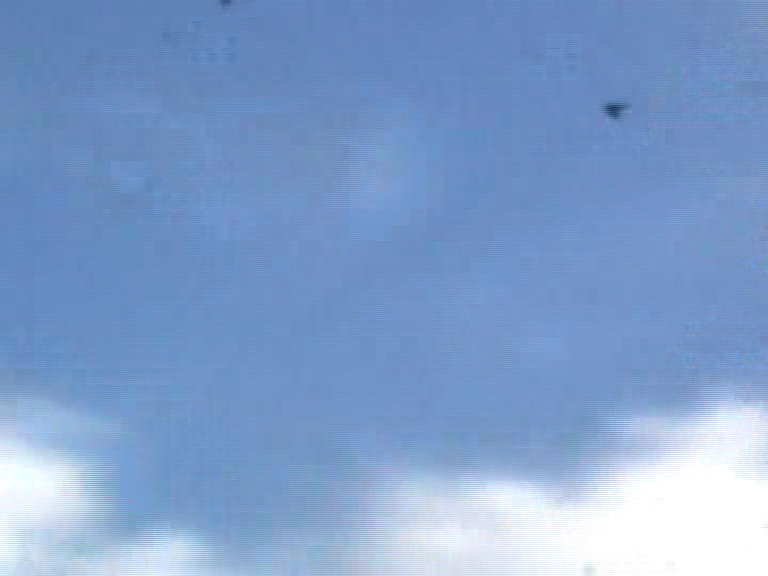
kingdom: Animalia
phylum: Chordata
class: Aves
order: Psittaciformes
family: Psittacidae
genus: Cyanoramphus
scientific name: Cyanoramphus novaezelandiae
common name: Red-fronted parakeet
